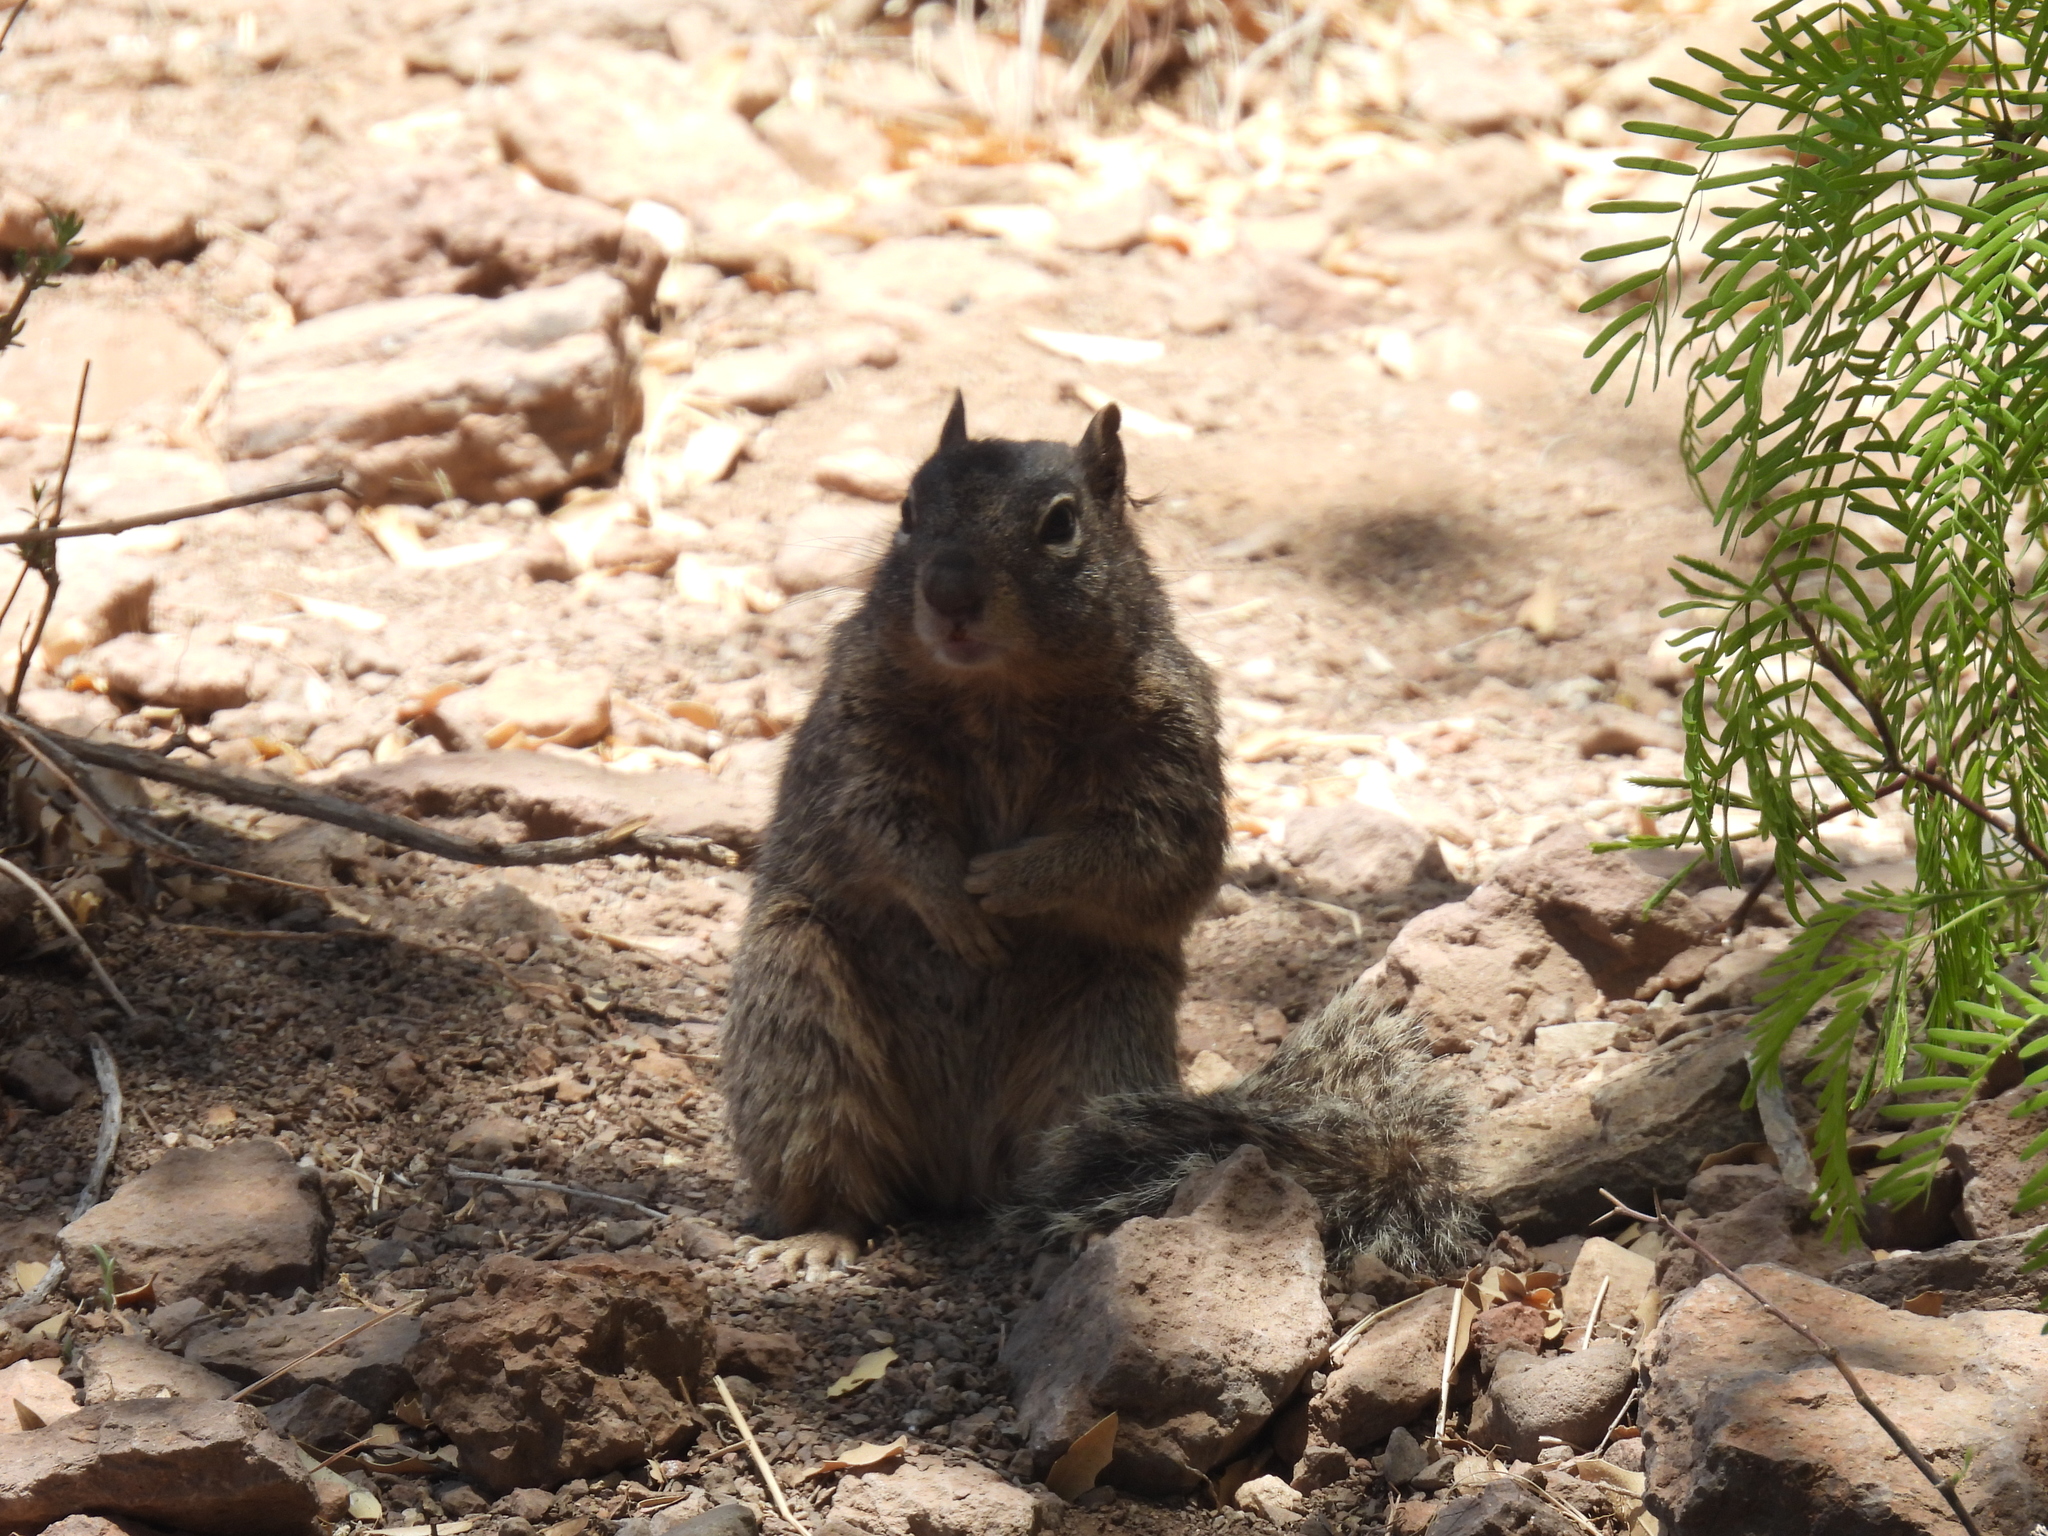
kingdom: Animalia
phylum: Chordata
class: Mammalia
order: Rodentia
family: Sciuridae
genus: Otospermophilus
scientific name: Otospermophilus variegatus
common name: Rock squirrel
